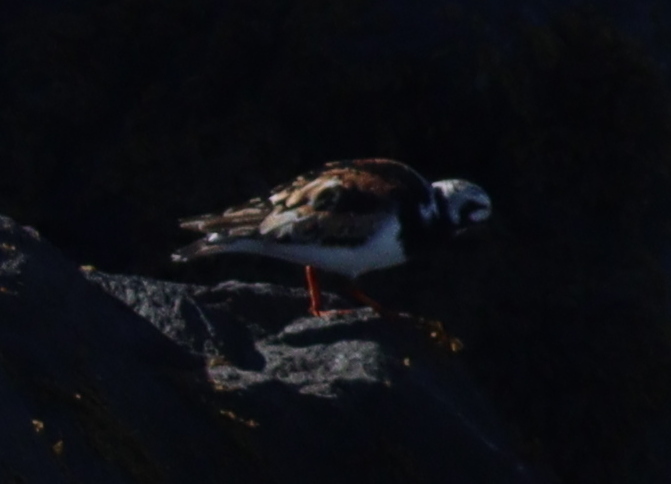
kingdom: Animalia
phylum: Chordata
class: Aves
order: Charadriiformes
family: Scolopacidae
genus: Arenaria
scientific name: Arenaria interpres
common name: Ruddy turnstone
